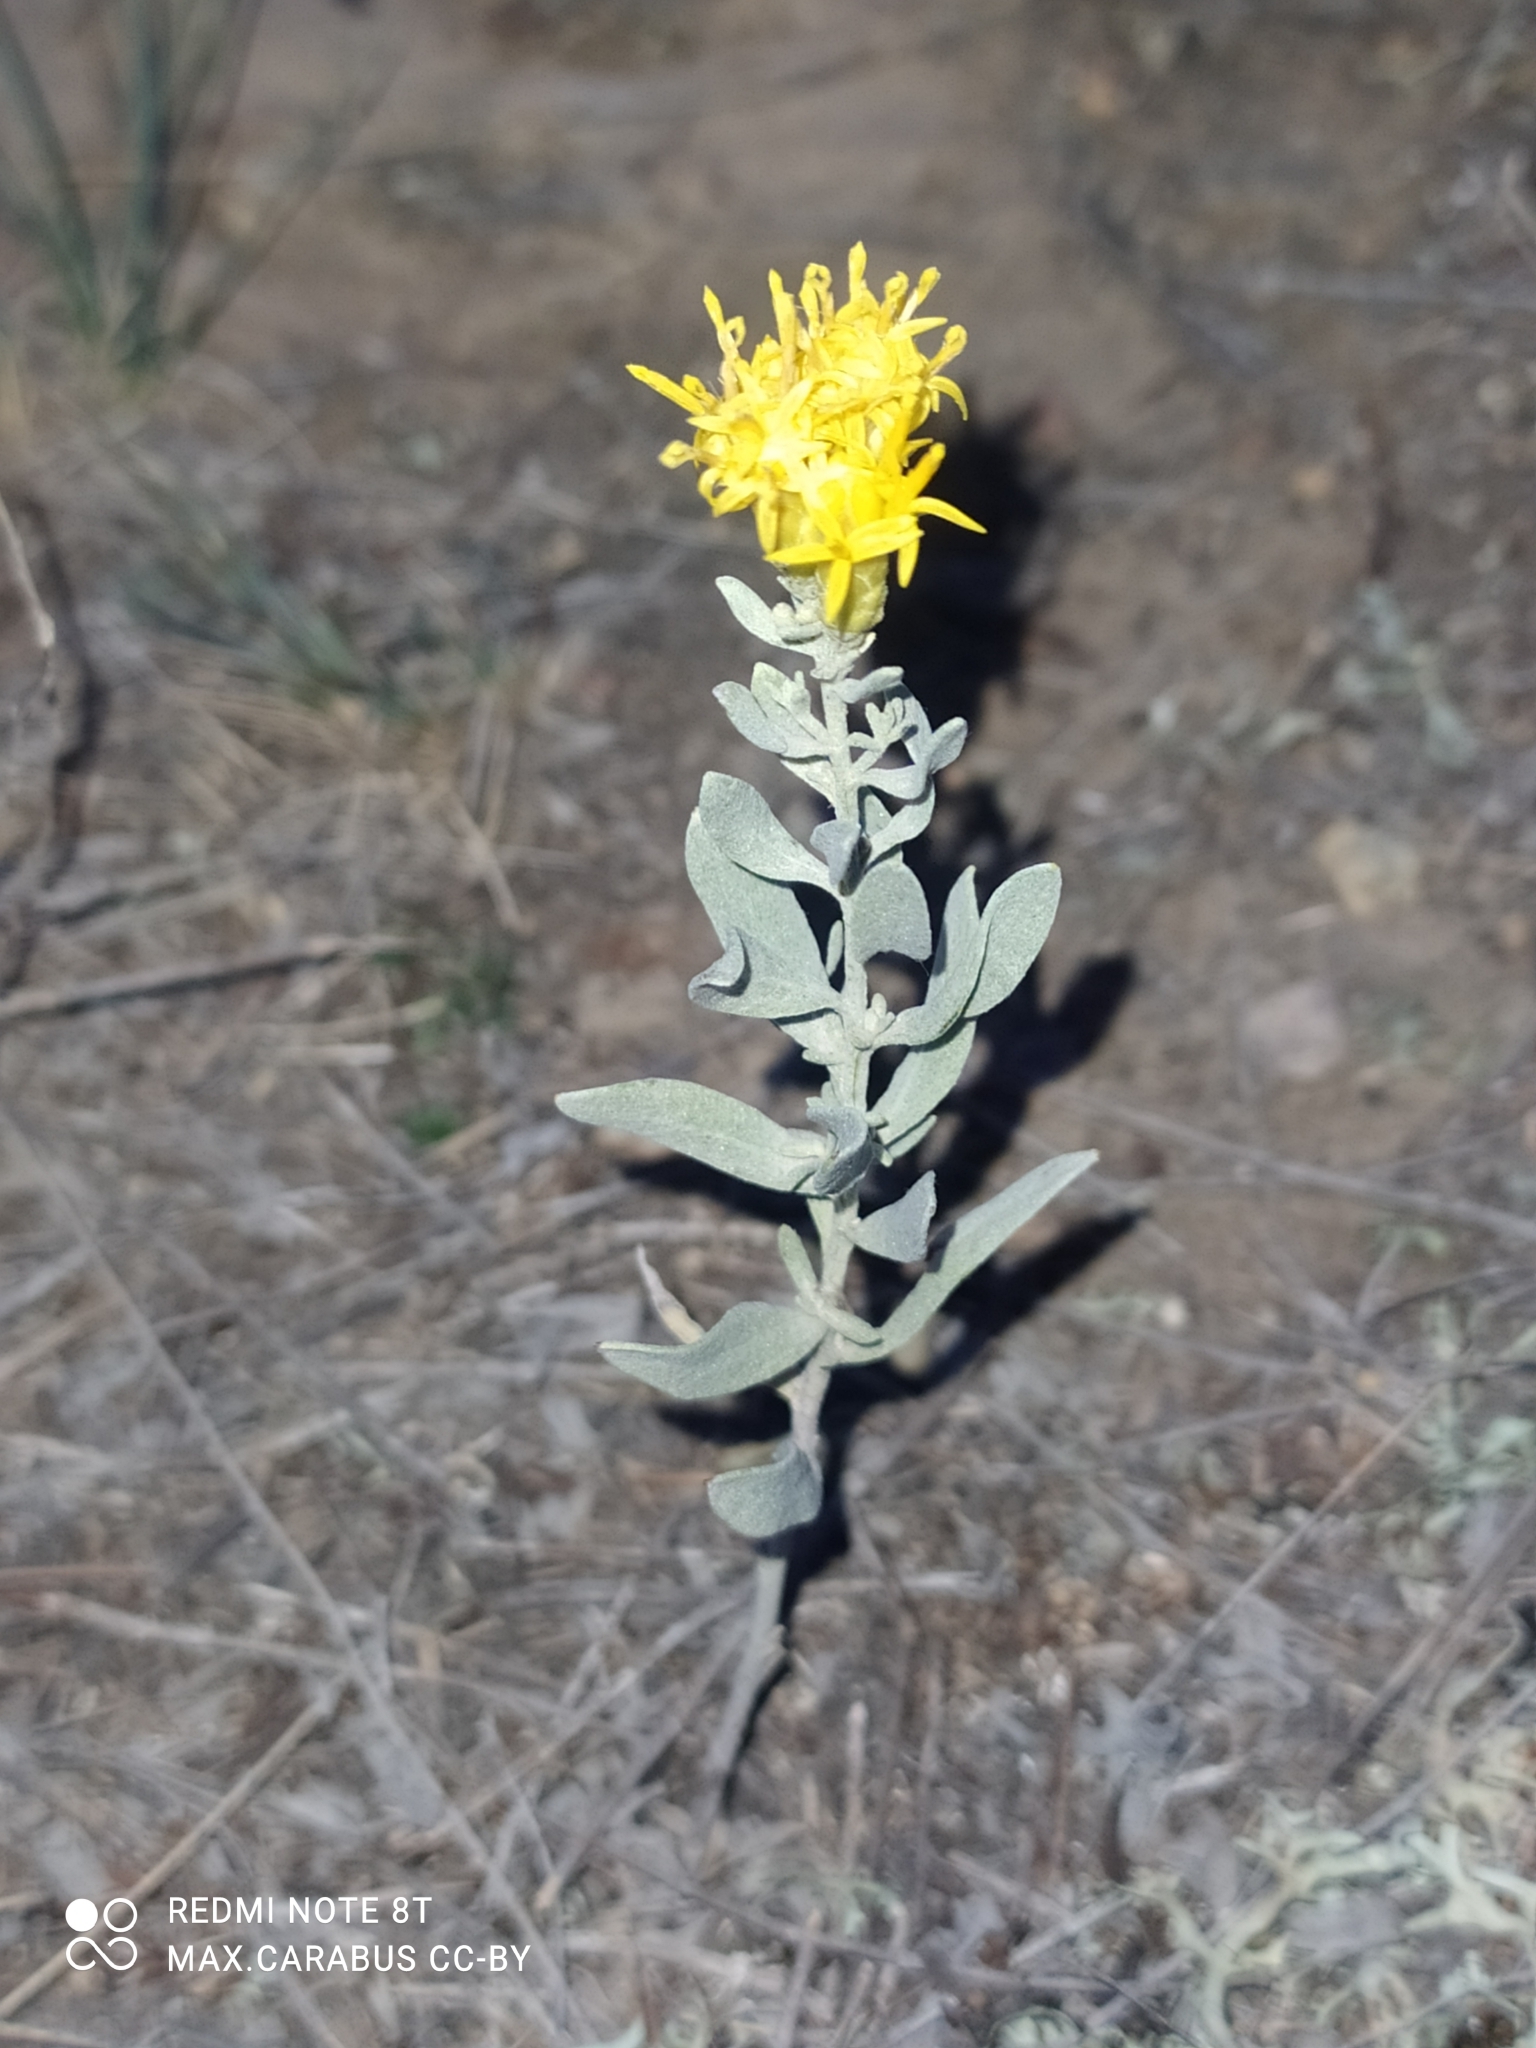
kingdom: Plantae
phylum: Tracheophyta
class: Magnoliopsida
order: Asterales
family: Asteraceae
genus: Galatella
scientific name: Galatella villosa
